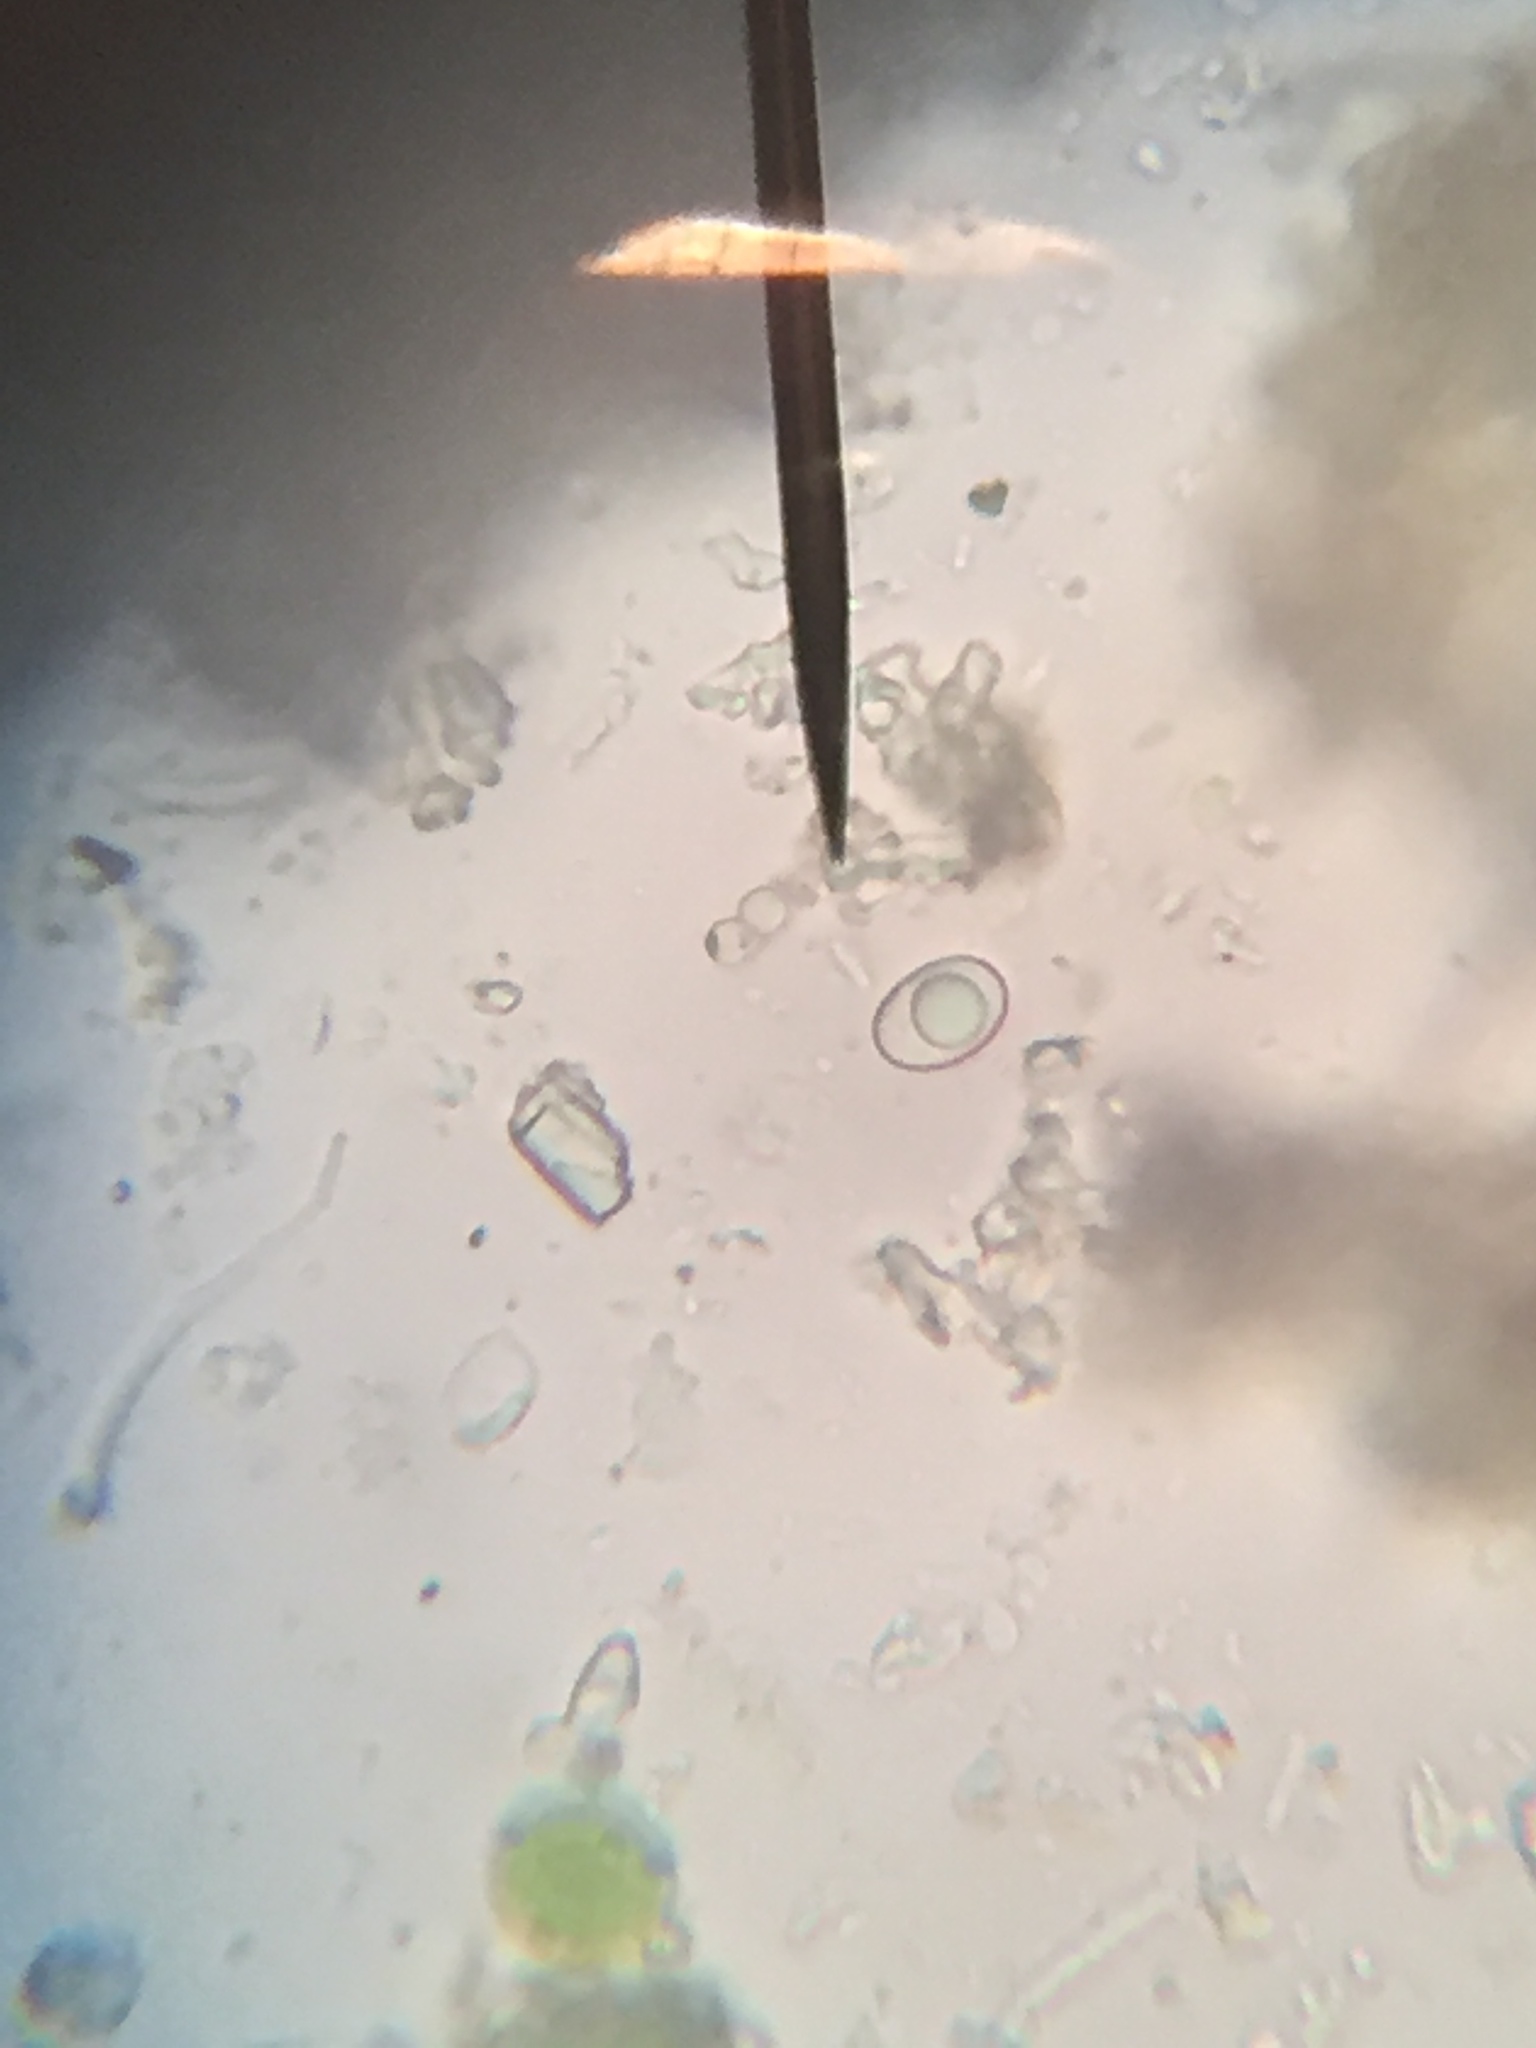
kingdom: Fungi
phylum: Ascomycota
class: Lecanoromycetes
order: Lecanorales
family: Lecanoraceae
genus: Lecidella
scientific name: Lecidella stigmatea
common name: Limestone disc lichen
